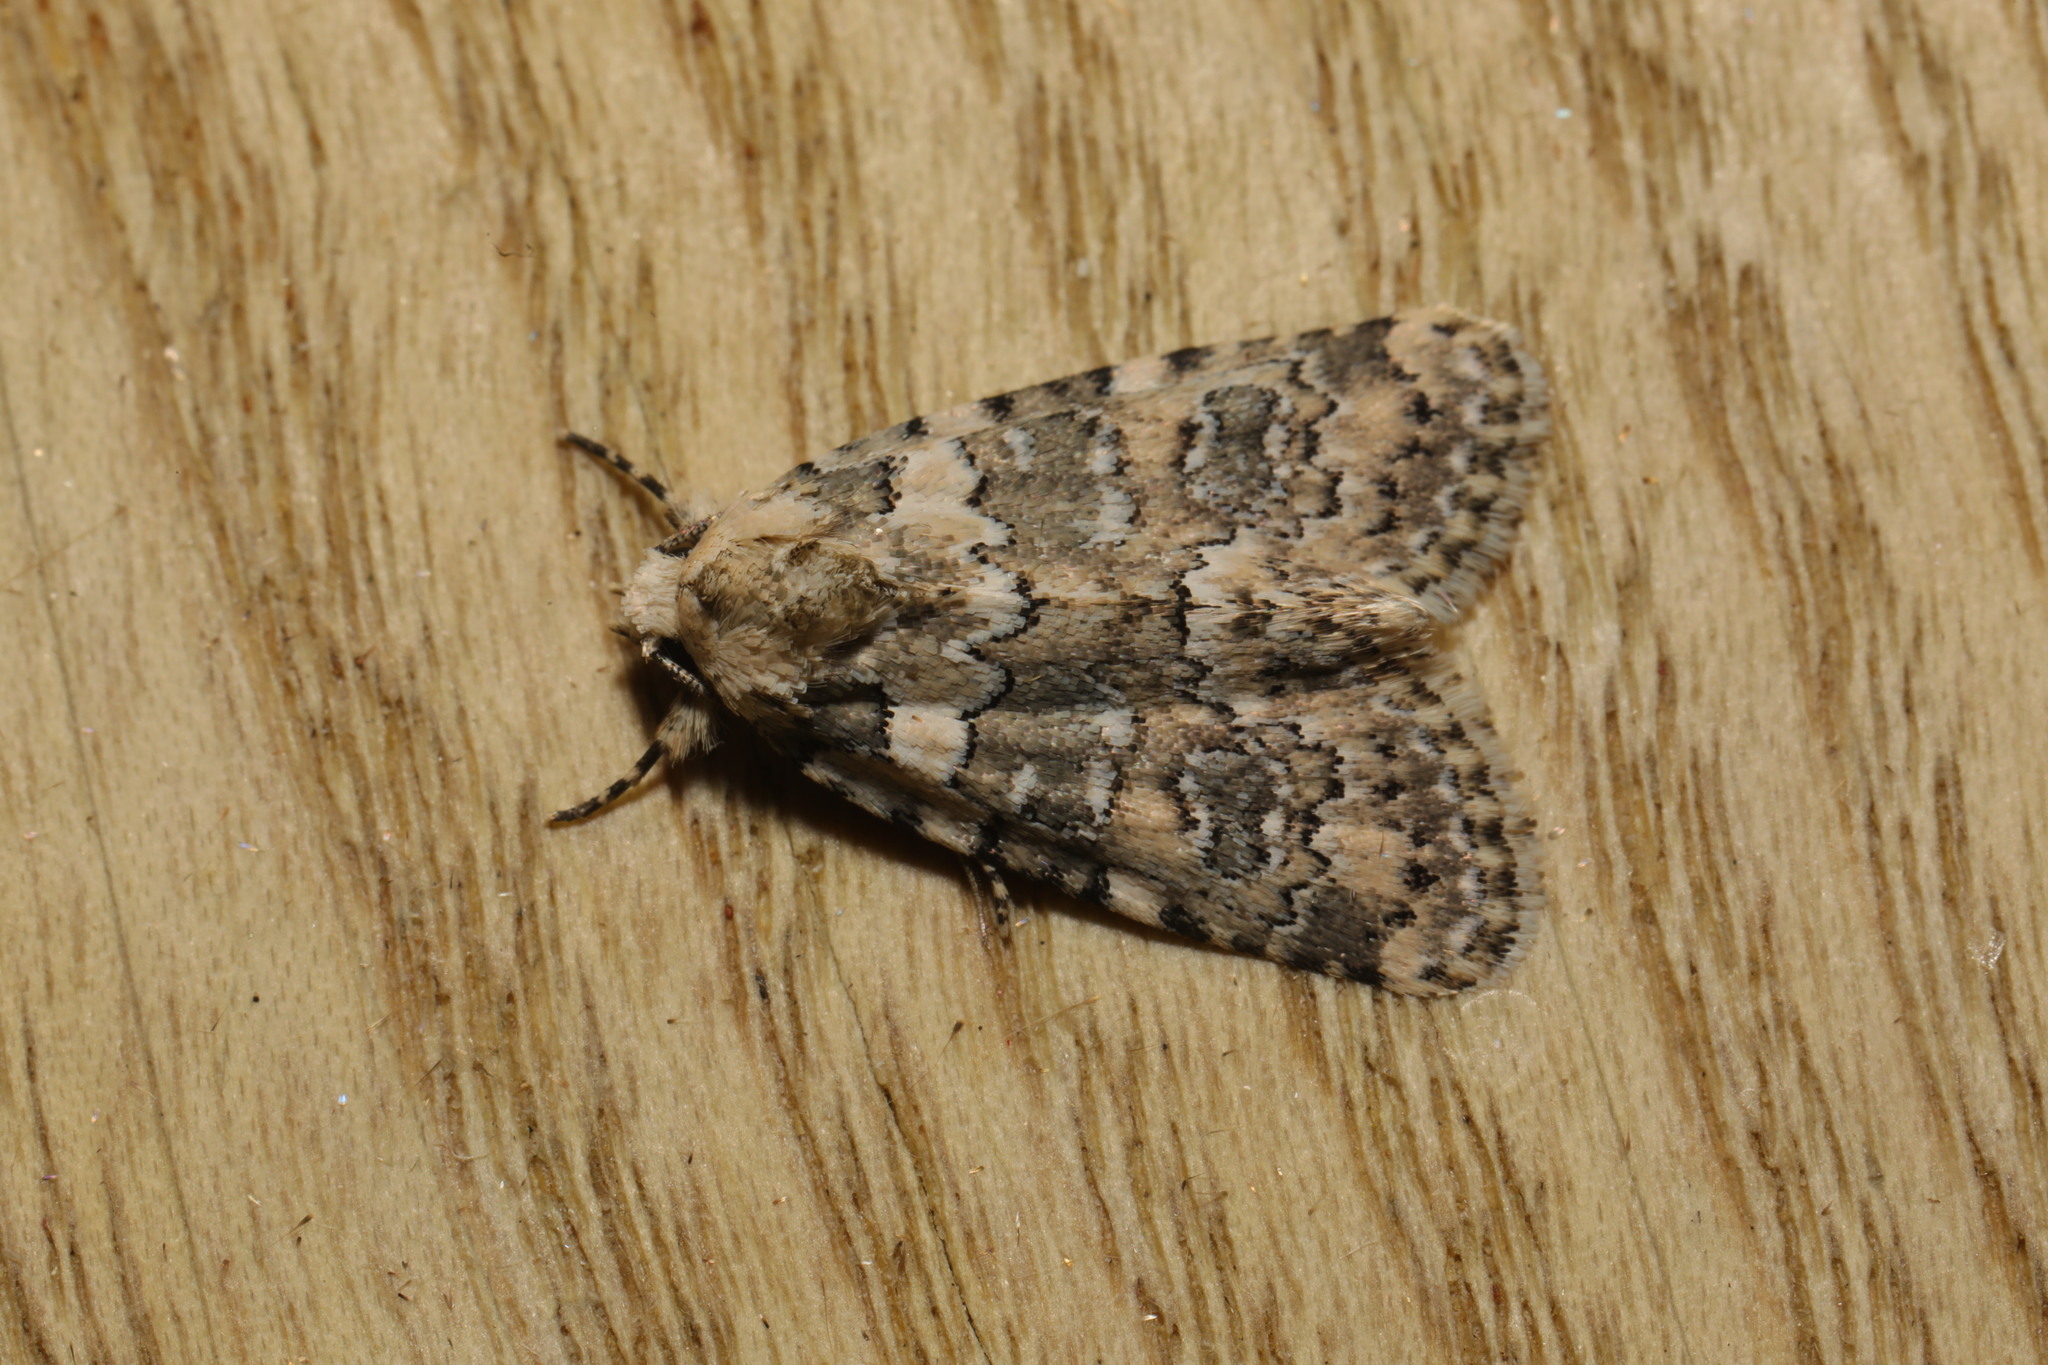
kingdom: Animalia
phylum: Arthropoda
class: Insecta
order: Lepidoptera
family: Noctuidae
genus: Bryophila
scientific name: Bryophila domestica
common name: Marbled beauty
